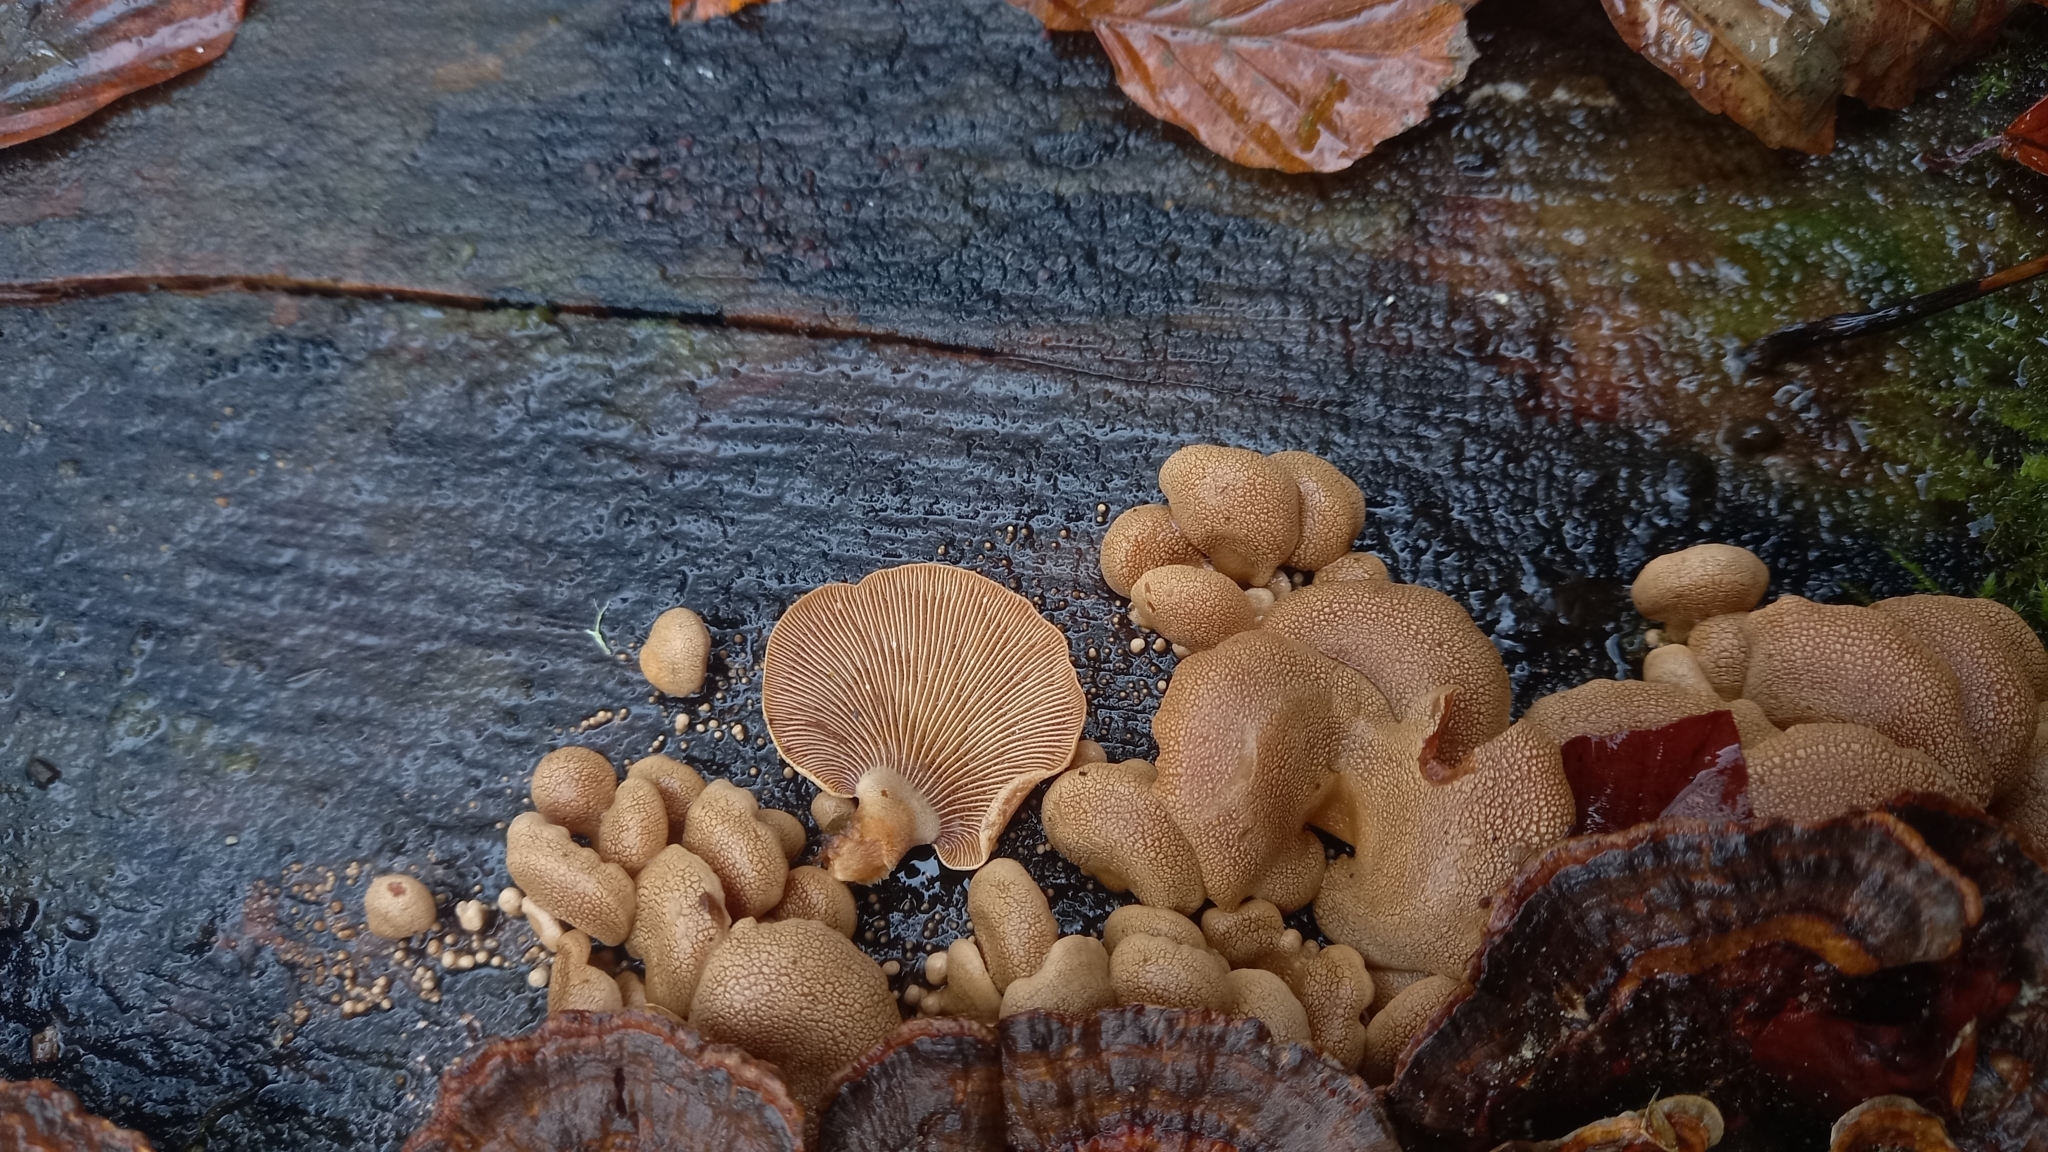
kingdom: Fungi
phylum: Basidiomycota
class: Agaricomycetes
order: Agaricales
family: Mycenaceae
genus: Panellus
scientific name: Panellus stipticus
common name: Bitter oysterling
